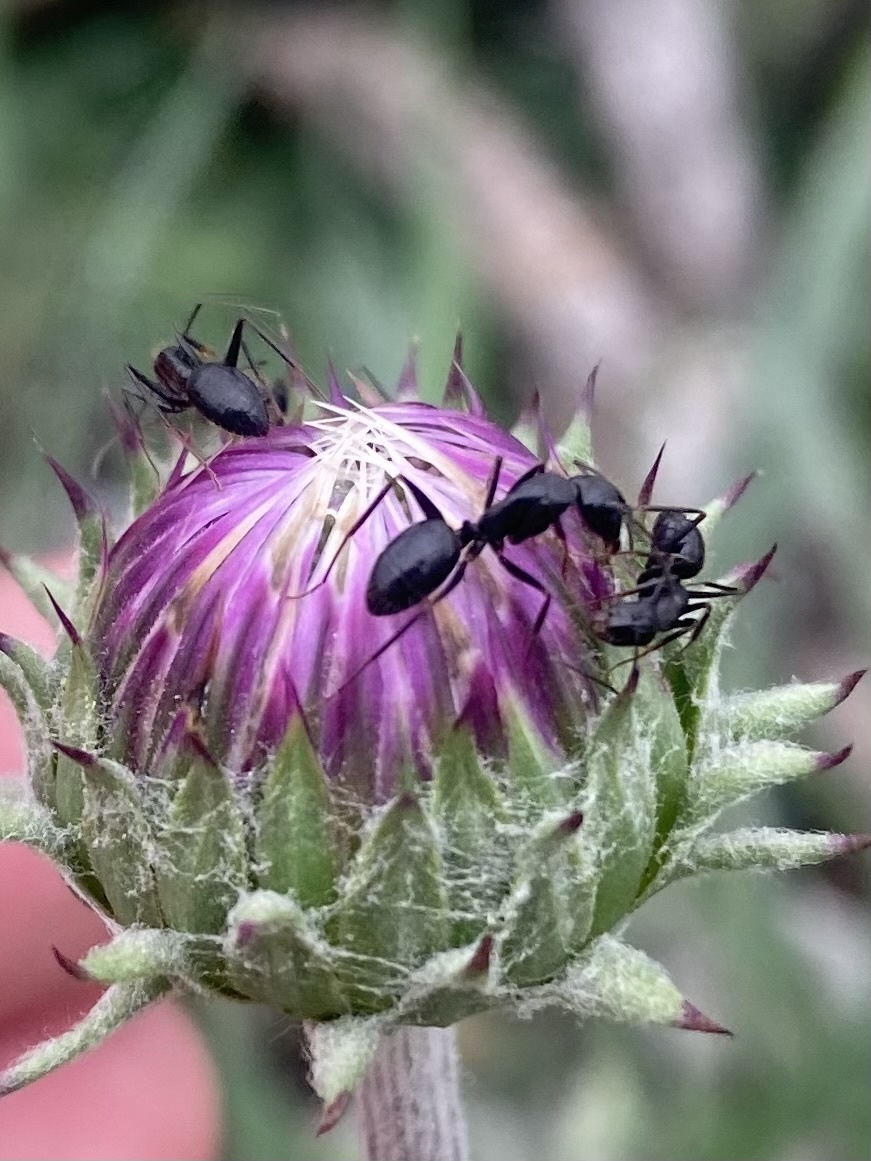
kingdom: Animalia
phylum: Arthropoda
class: Insecta
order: Hymenoptera
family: Formicidae
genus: Camponotus
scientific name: Camponotus aethiops
